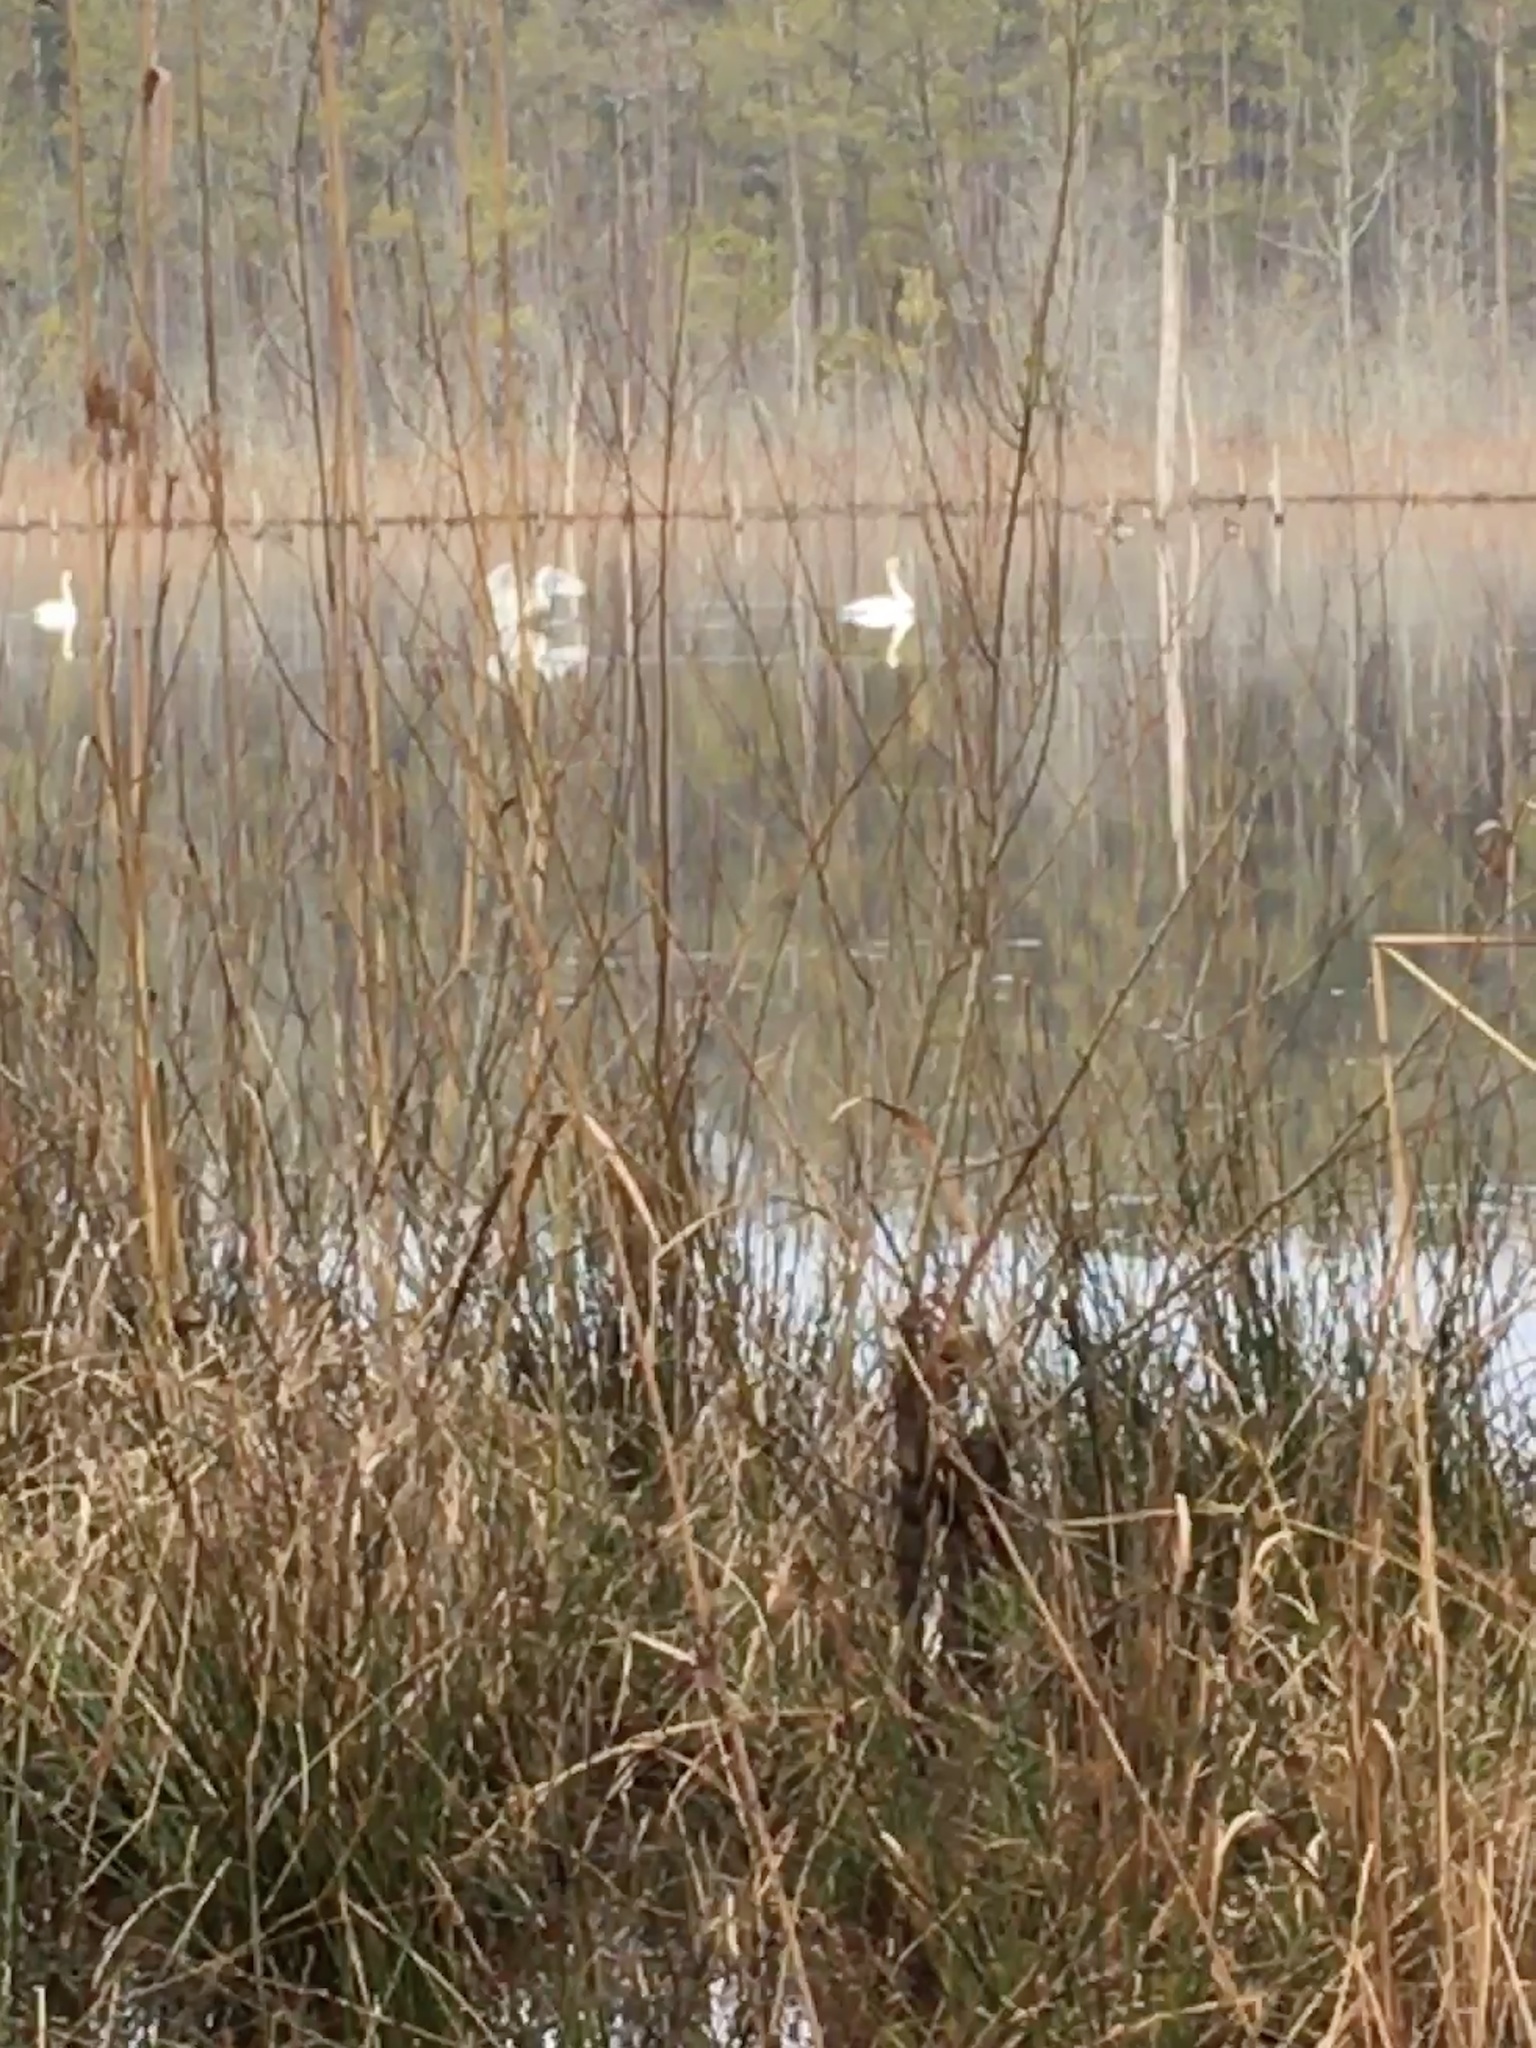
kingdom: Animalia
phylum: Chordata
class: Aves
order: Anseriformes
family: Anatidae
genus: Cygnus
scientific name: Cygnus columbianus
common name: Tundra swan
